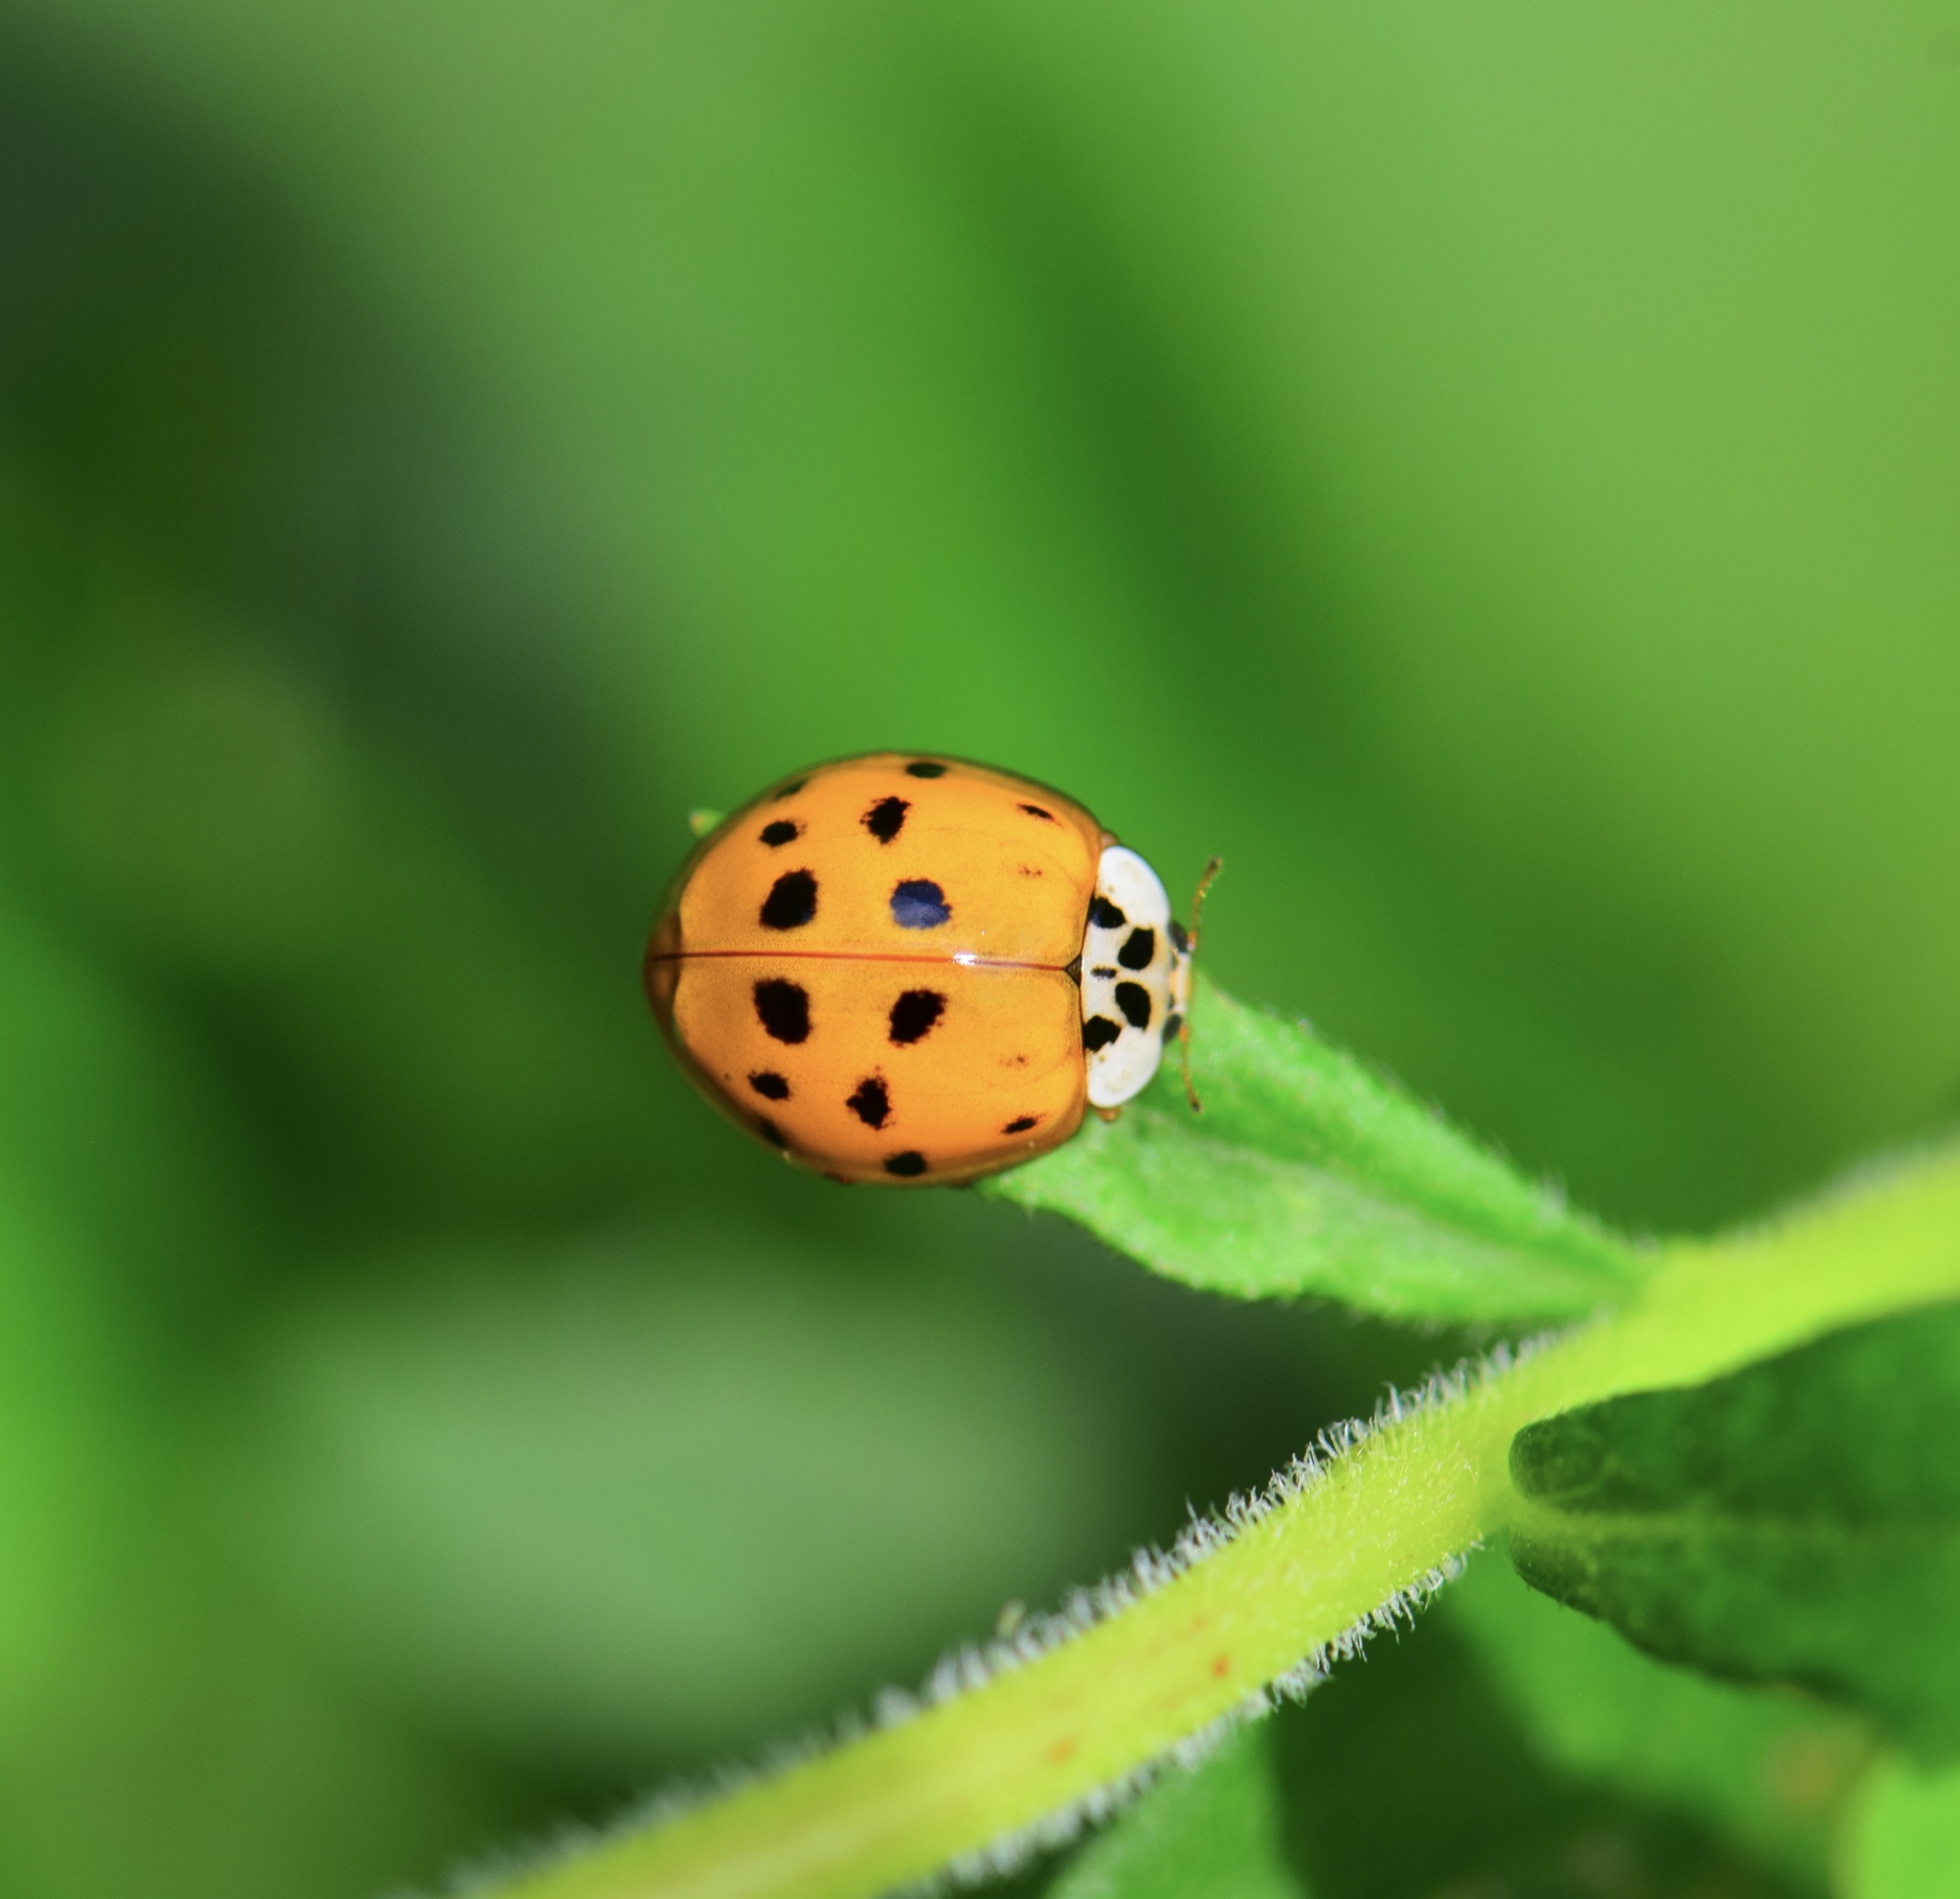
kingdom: Animalia
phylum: Arthropoda
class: Insecta
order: Coleoptera
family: Coccinellidae
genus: Harmonia
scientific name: Harmonia axyridis
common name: Harlequin ladybird
